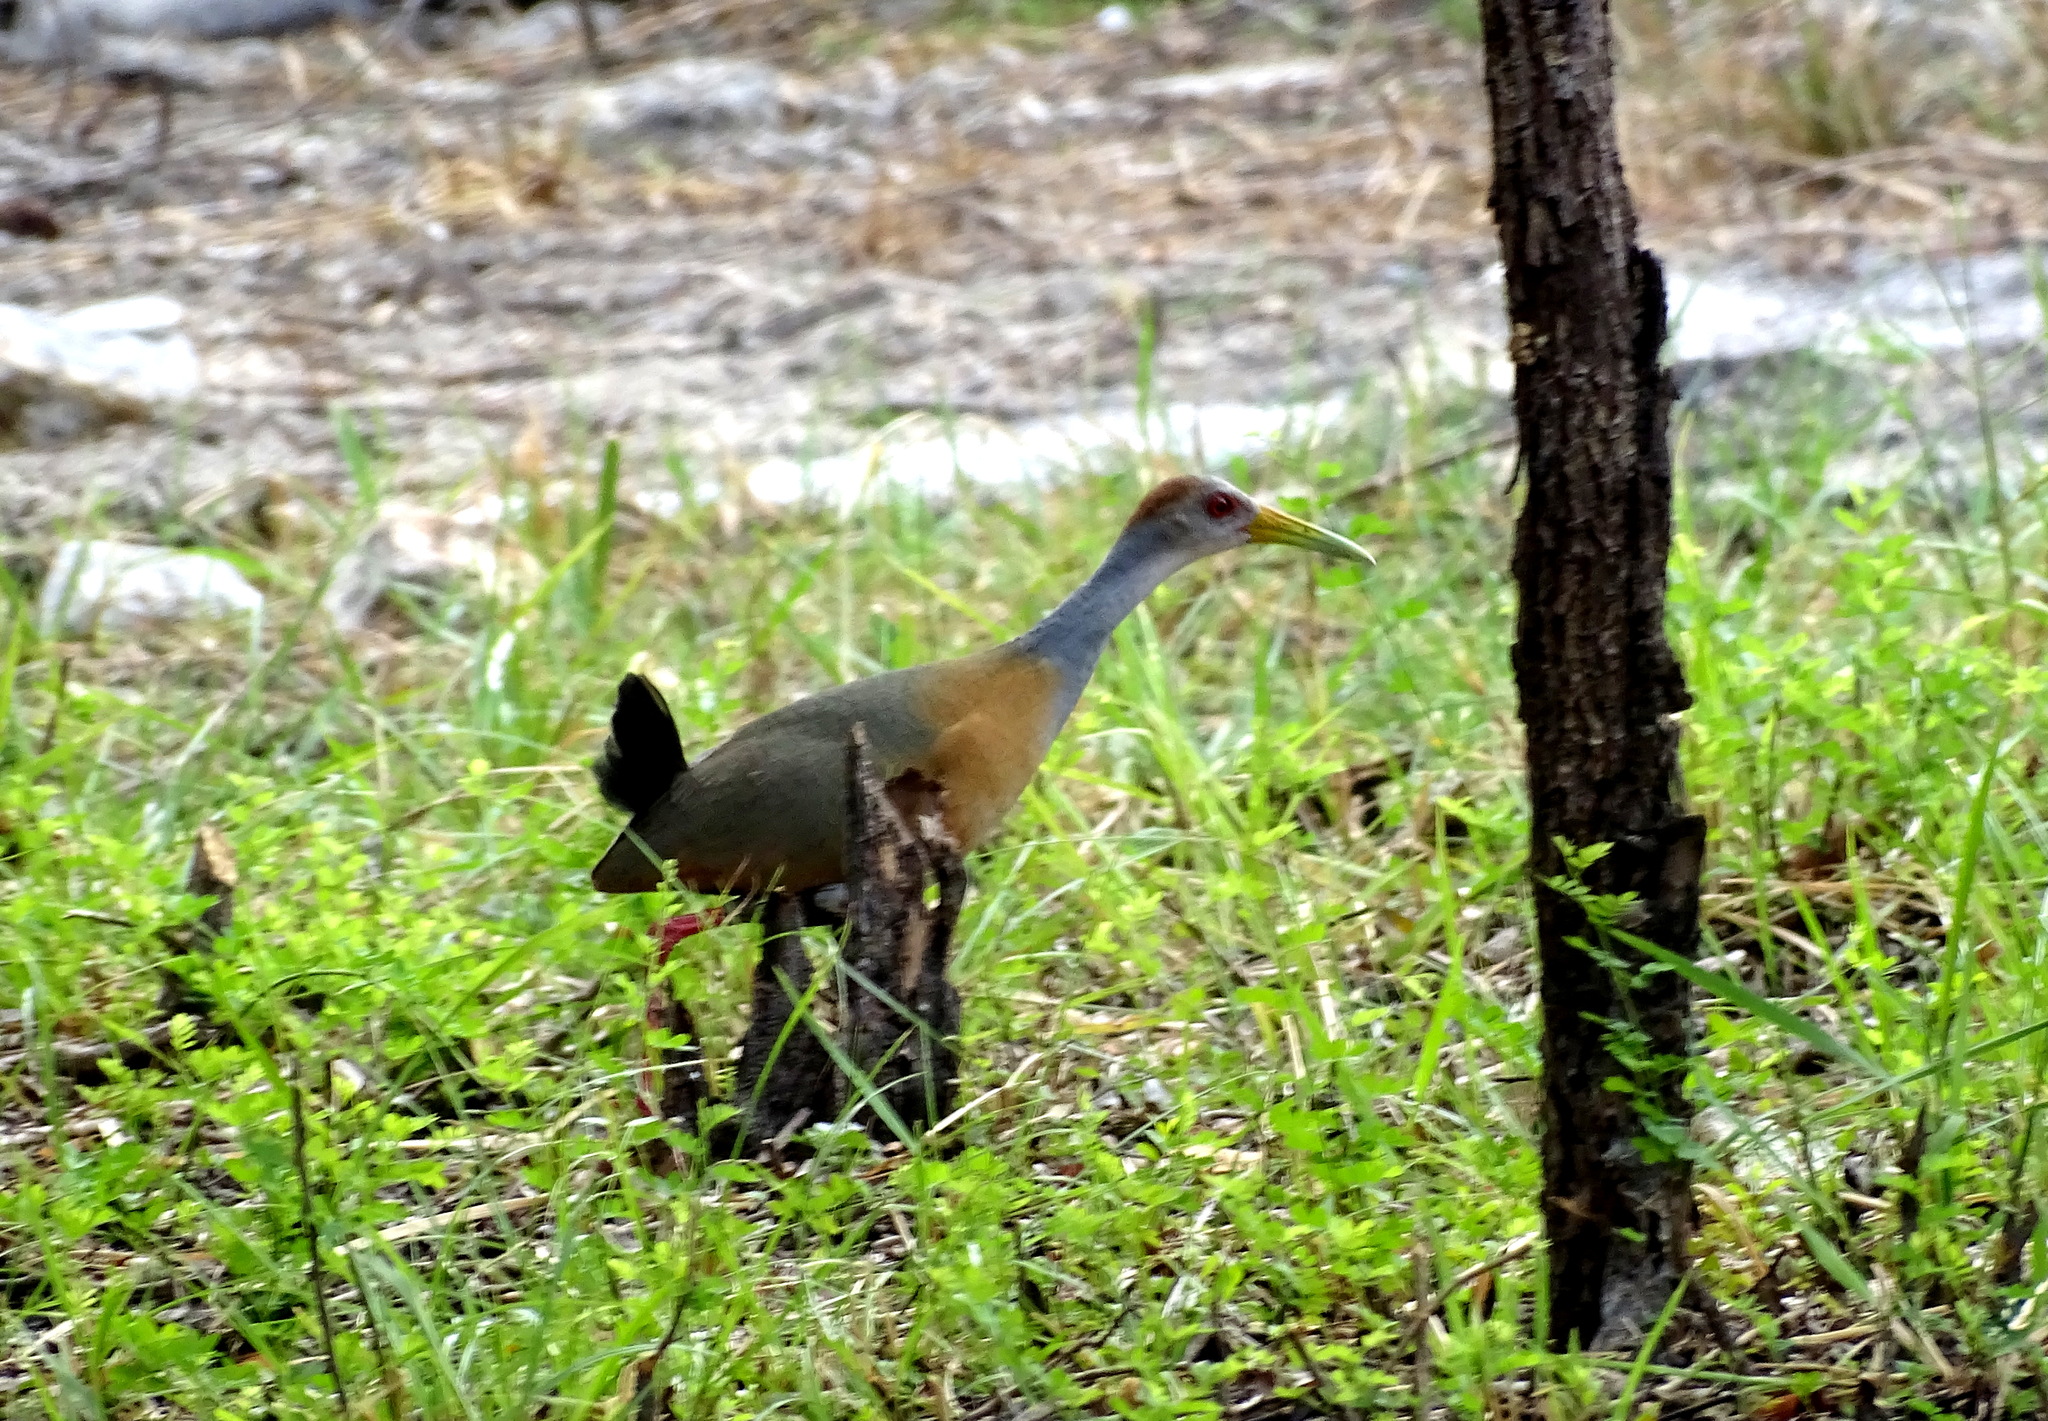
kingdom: Animalia
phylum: Chordata
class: Aves
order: Gruiformes
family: Rallidae
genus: Aramides
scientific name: Aramides albiventris
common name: Russet-naped wood-rail
